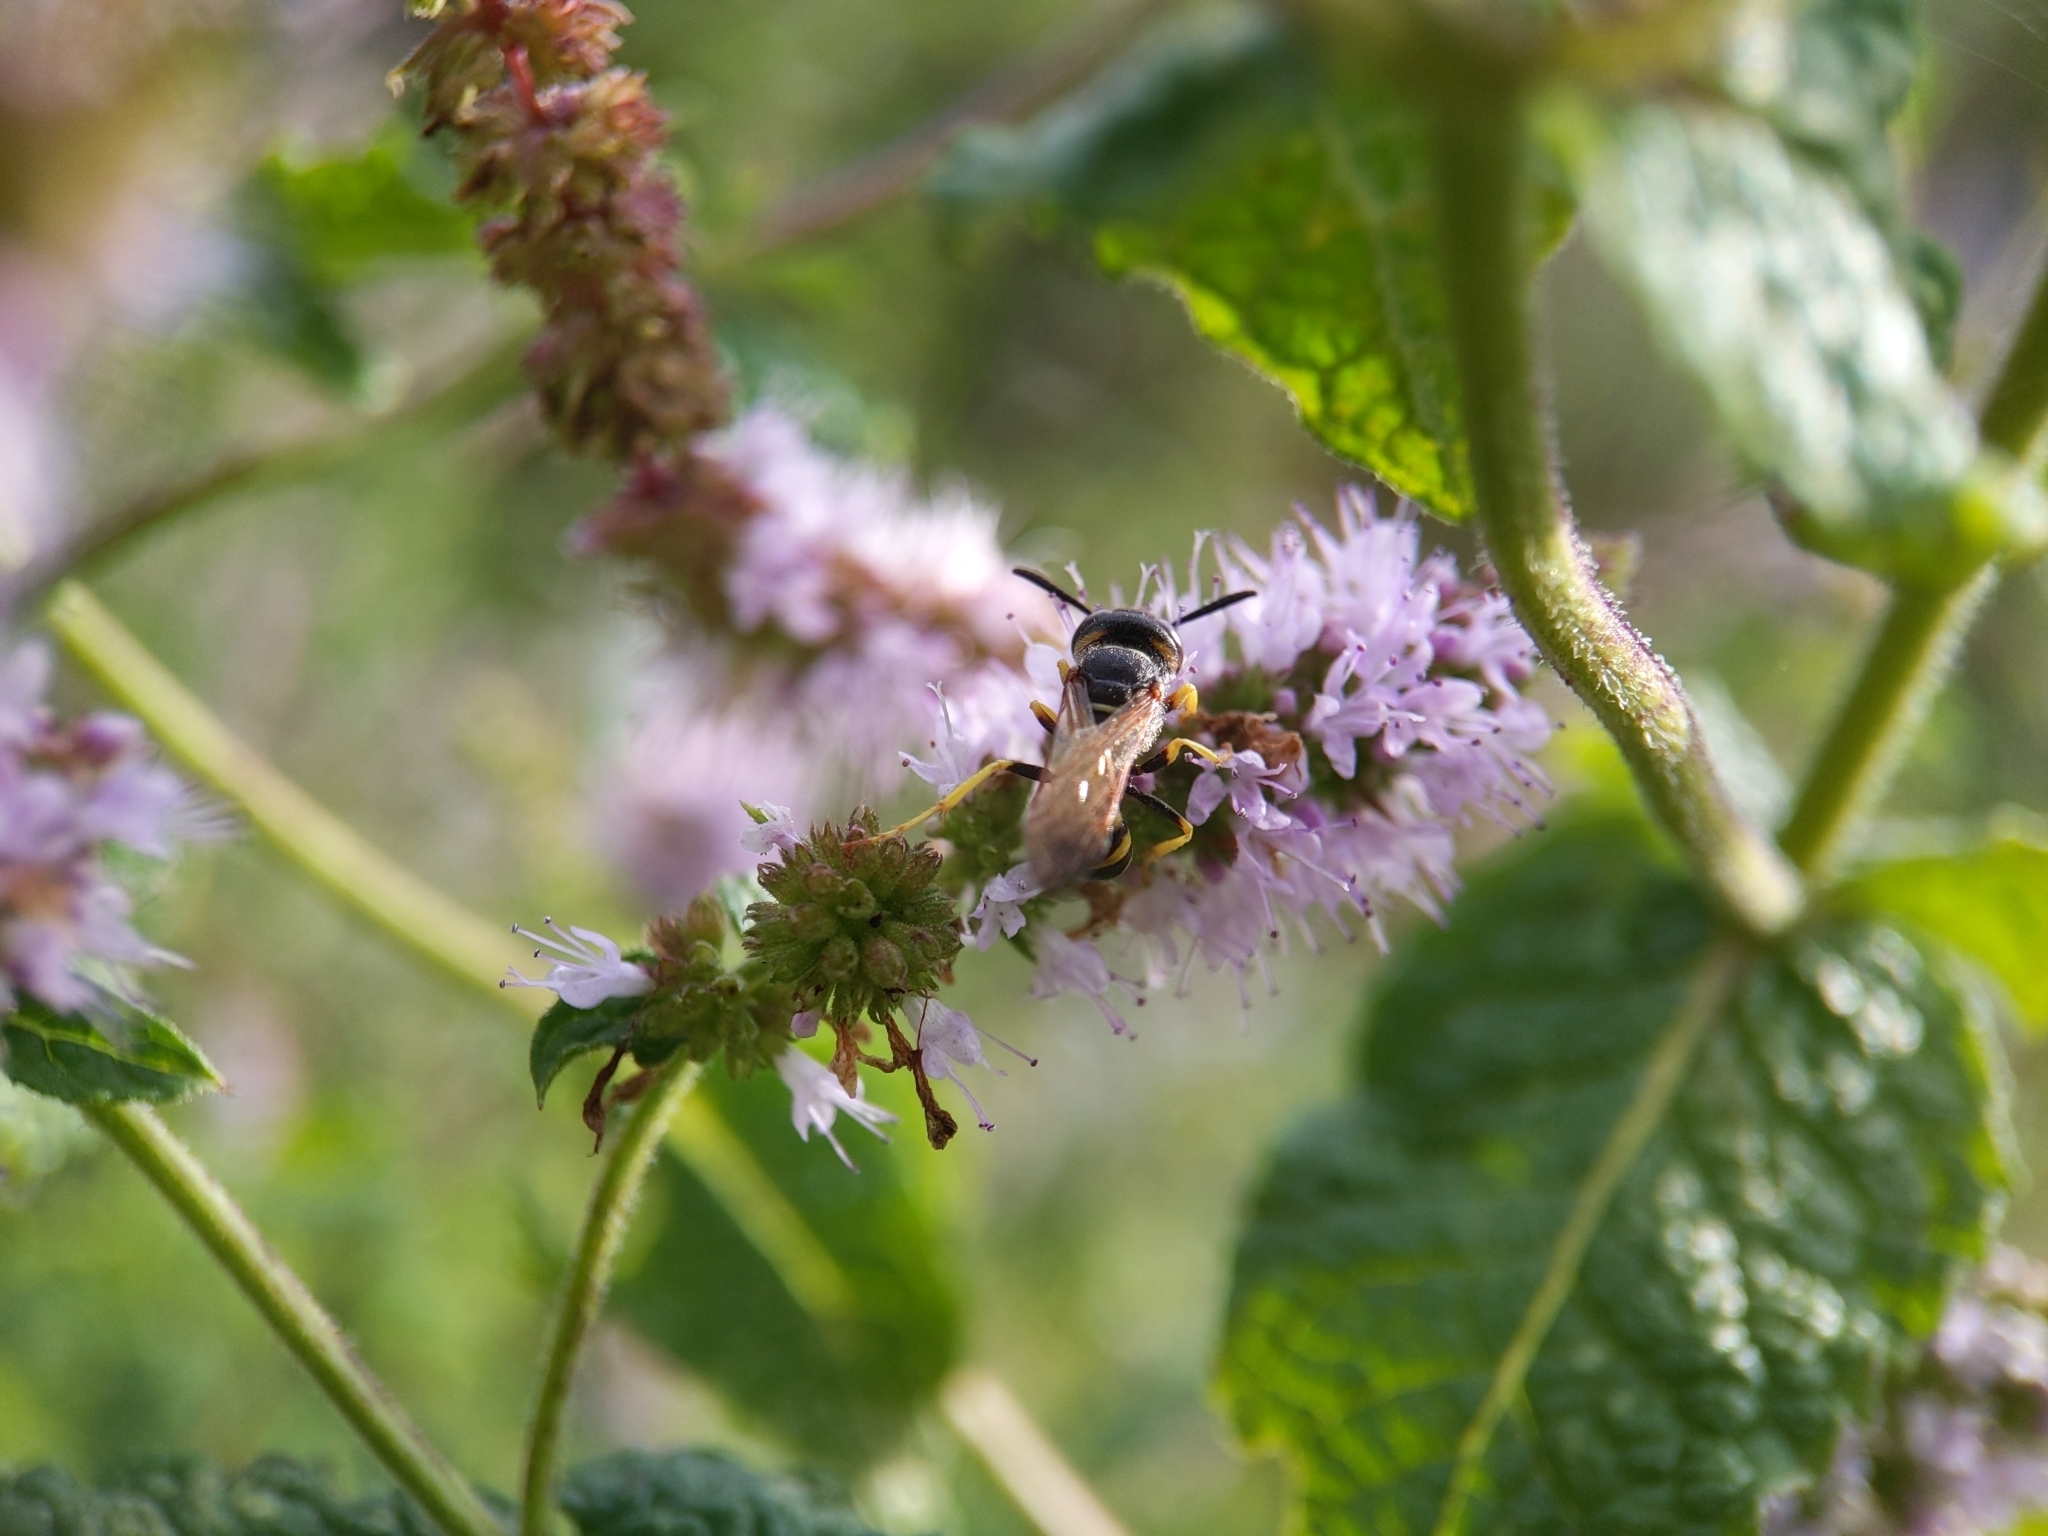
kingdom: Animalia
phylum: Arthropoda
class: Insecta
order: Hymenoptera
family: Crabronidae
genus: Philanthus
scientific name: Philanthus triangulum
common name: Bee wolf
